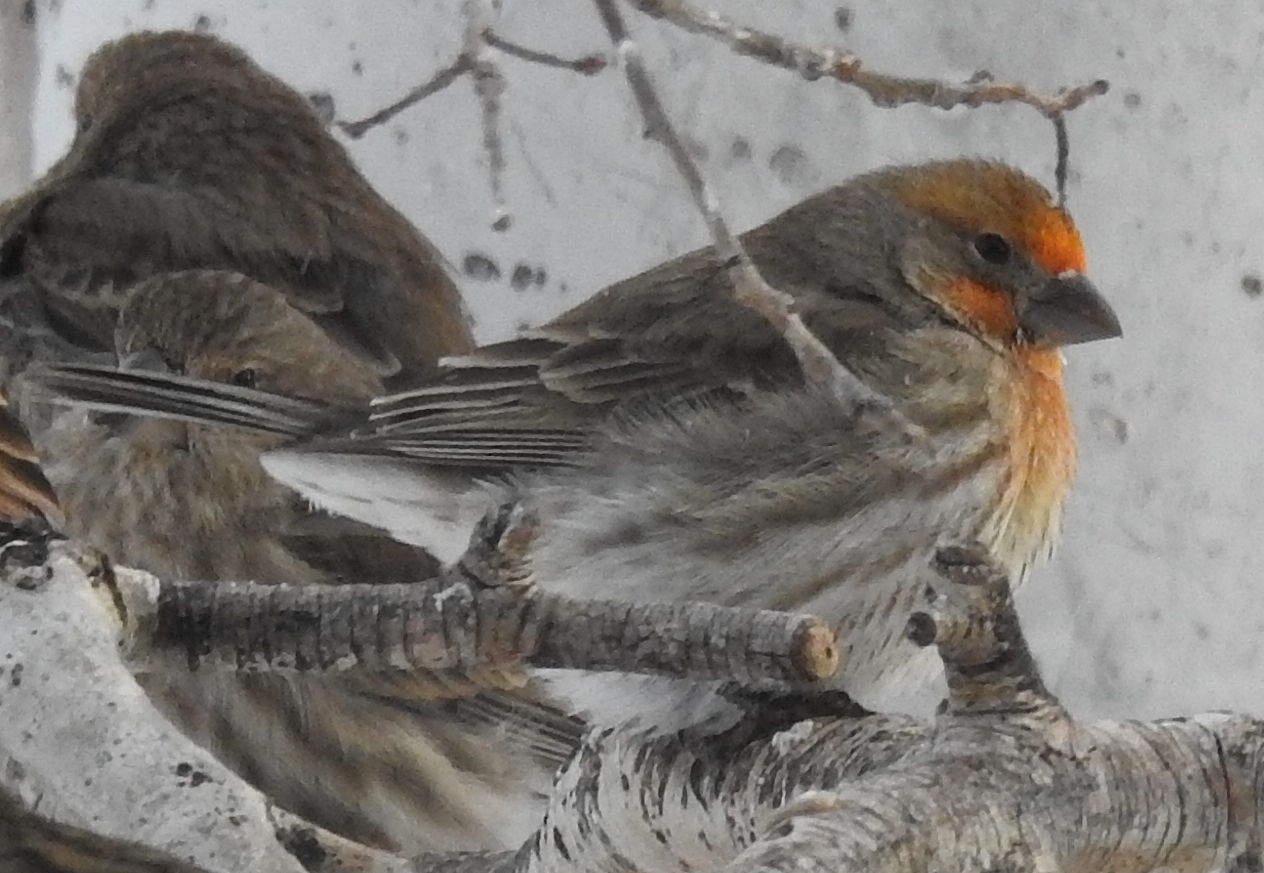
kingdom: Animalia
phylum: Chordata
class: Aves
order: Passeriformes
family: Fringillidae
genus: Haemorhous
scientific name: Haemorhous mexicanus
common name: House finch
